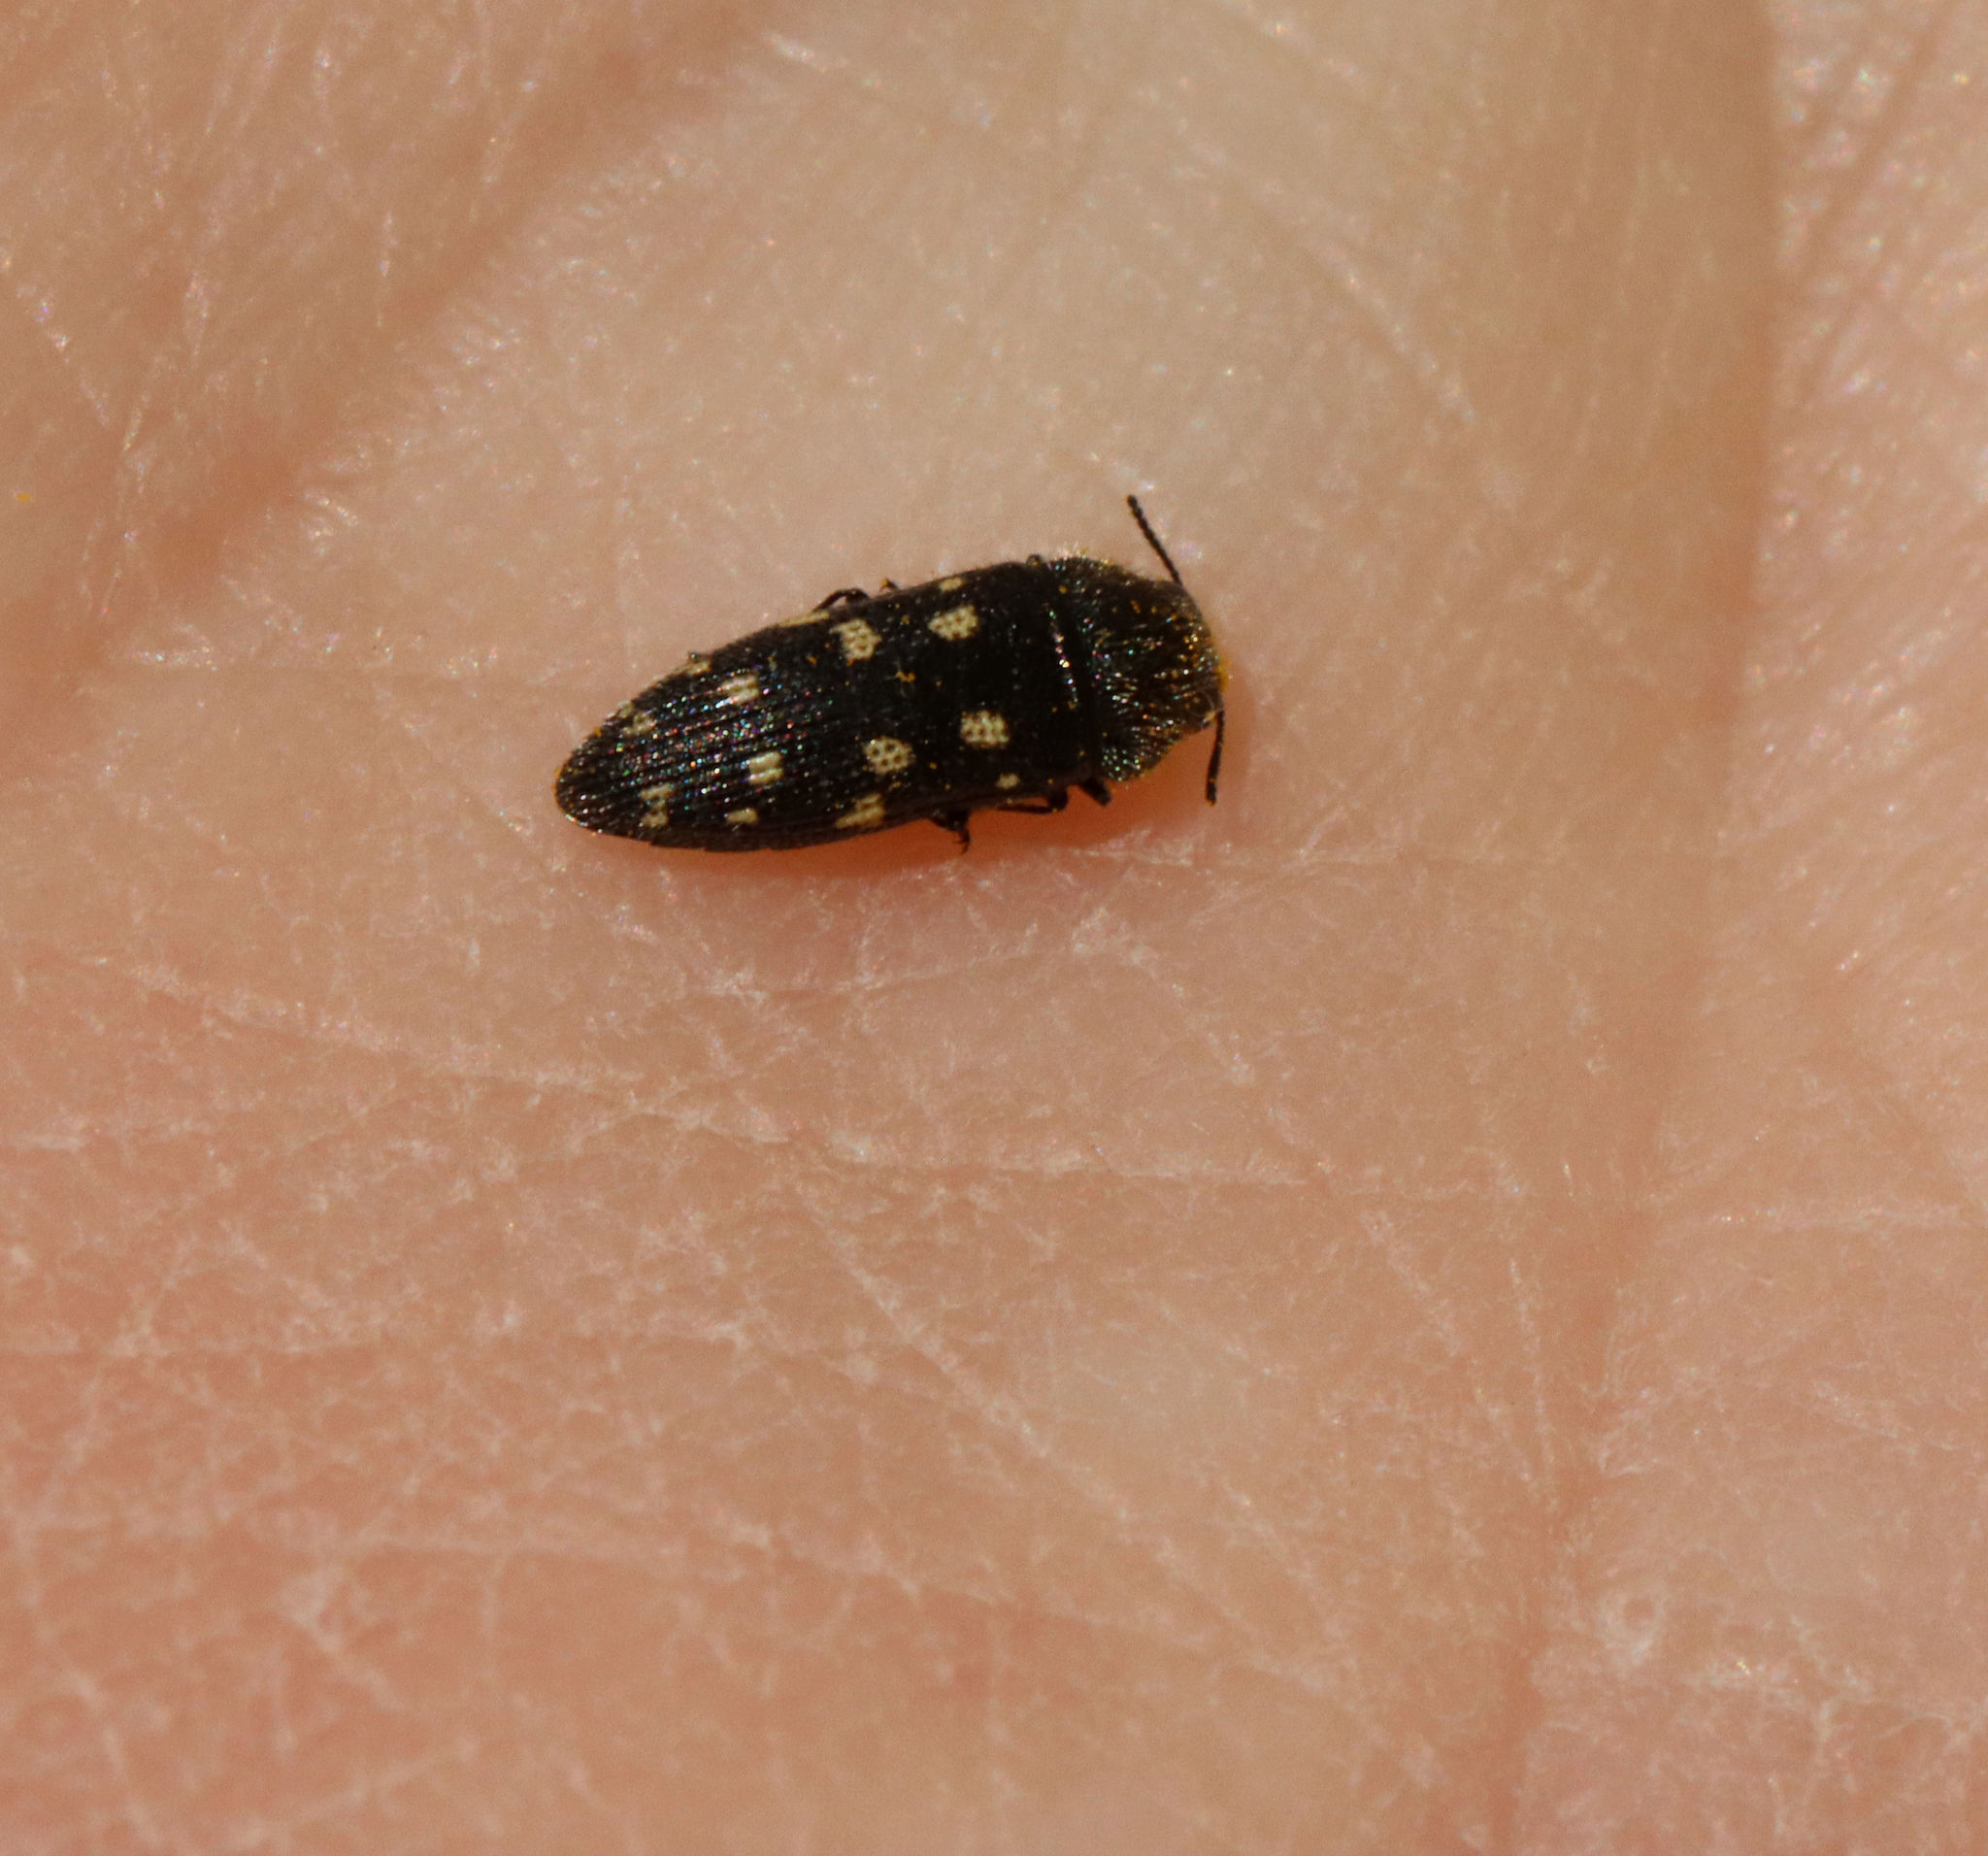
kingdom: Animalia
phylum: Arthropoda
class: Insecta
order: Coleoptera
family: Buprestidae
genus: Acmaeodera
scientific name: Acmaeodera tubulus
